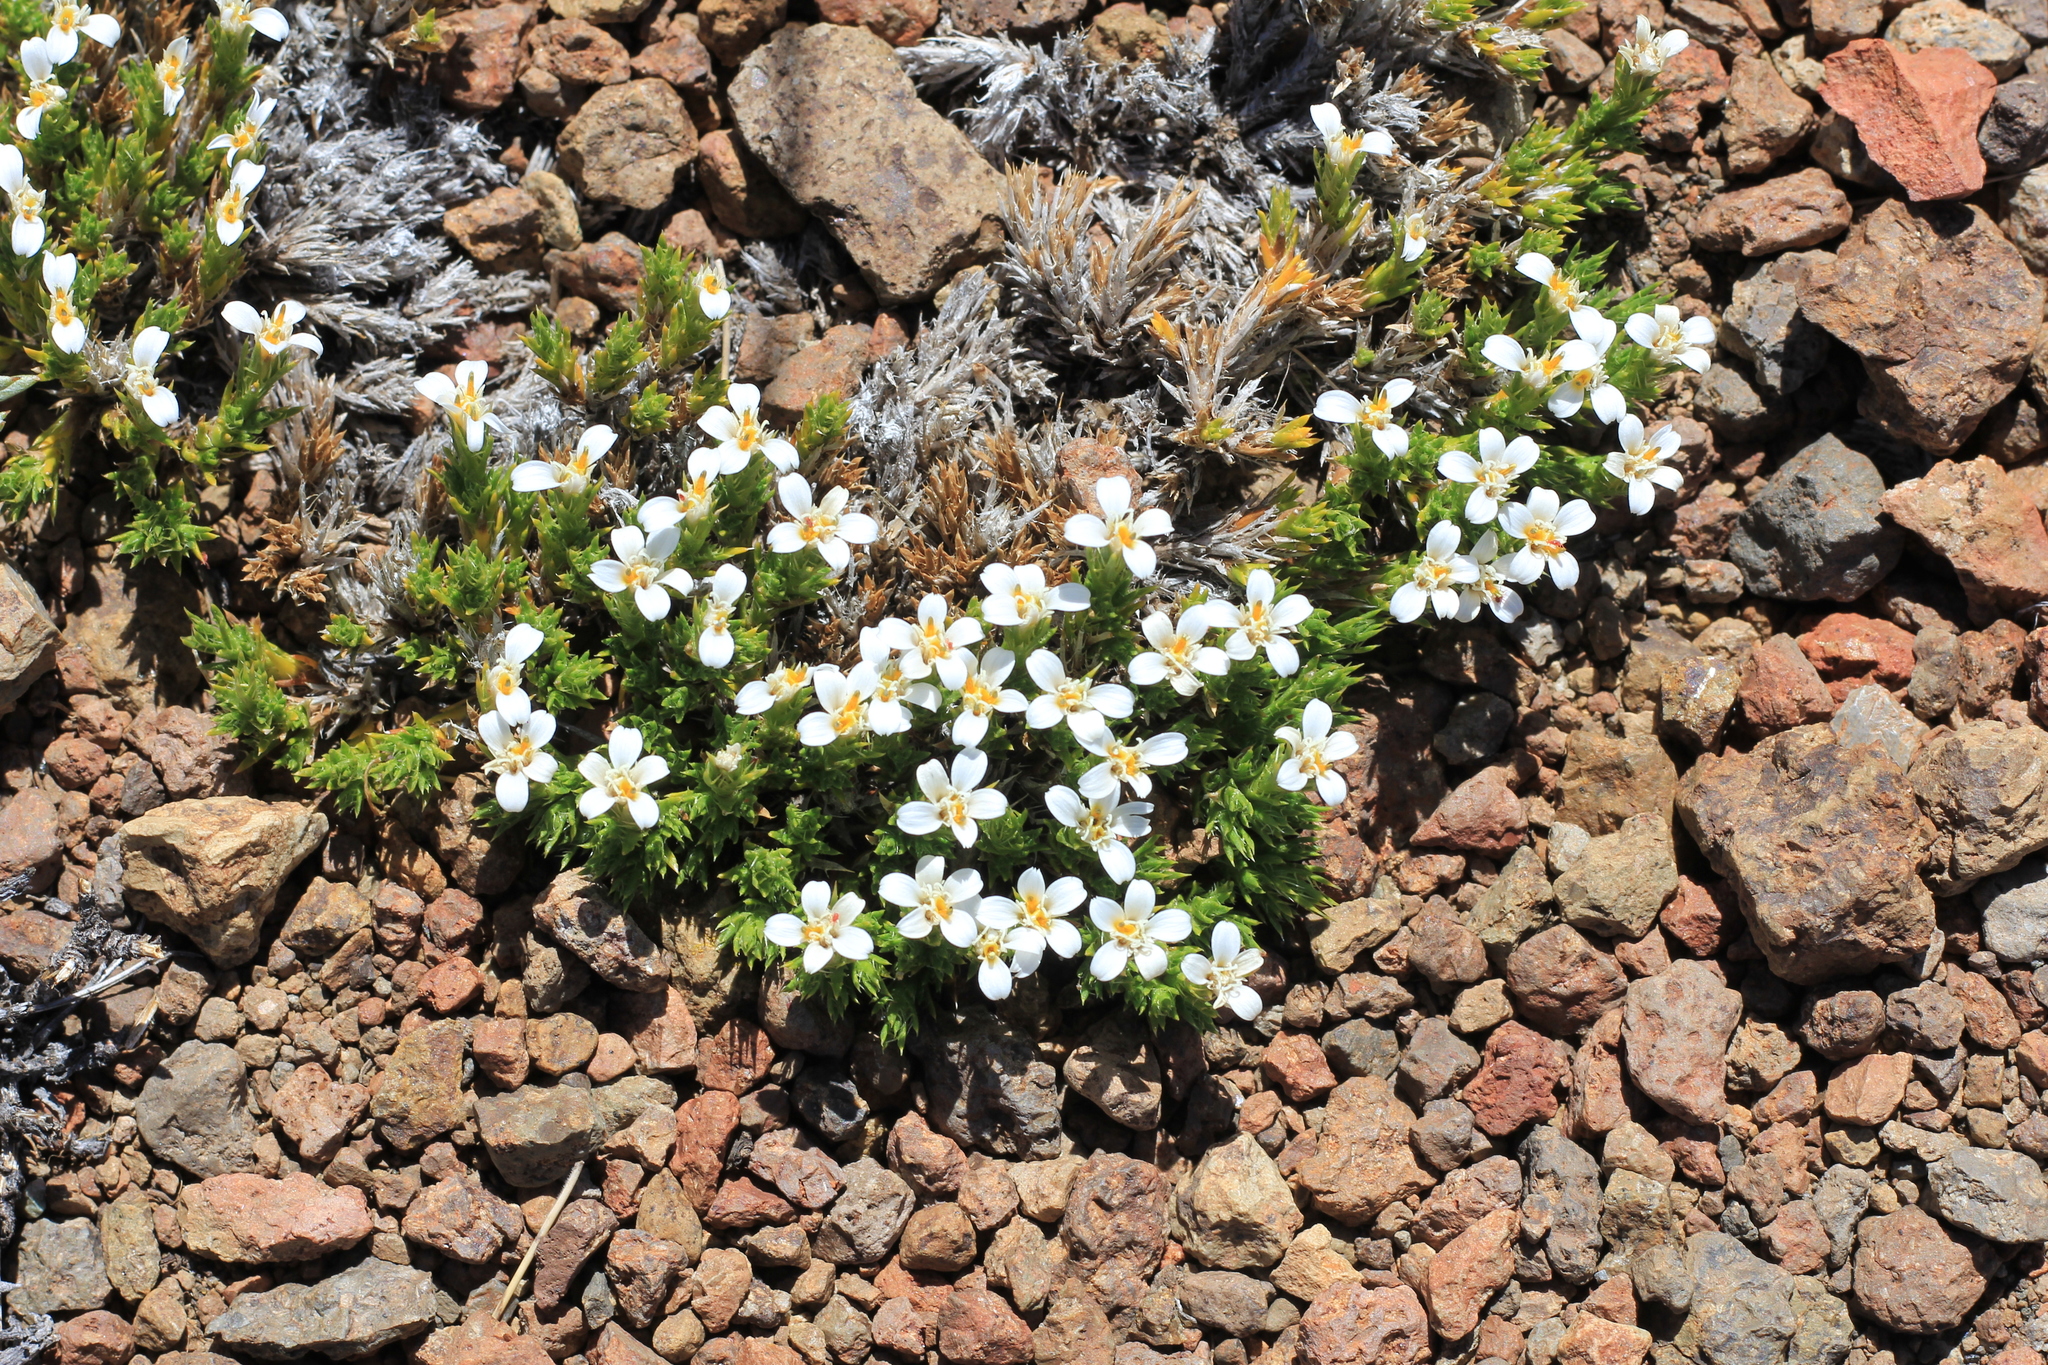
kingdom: Plantae
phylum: Tracheophyta
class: Magnoliopsida
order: Asterales
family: Asteraceae
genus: Nassauvia
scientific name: Nassauvia hillii
